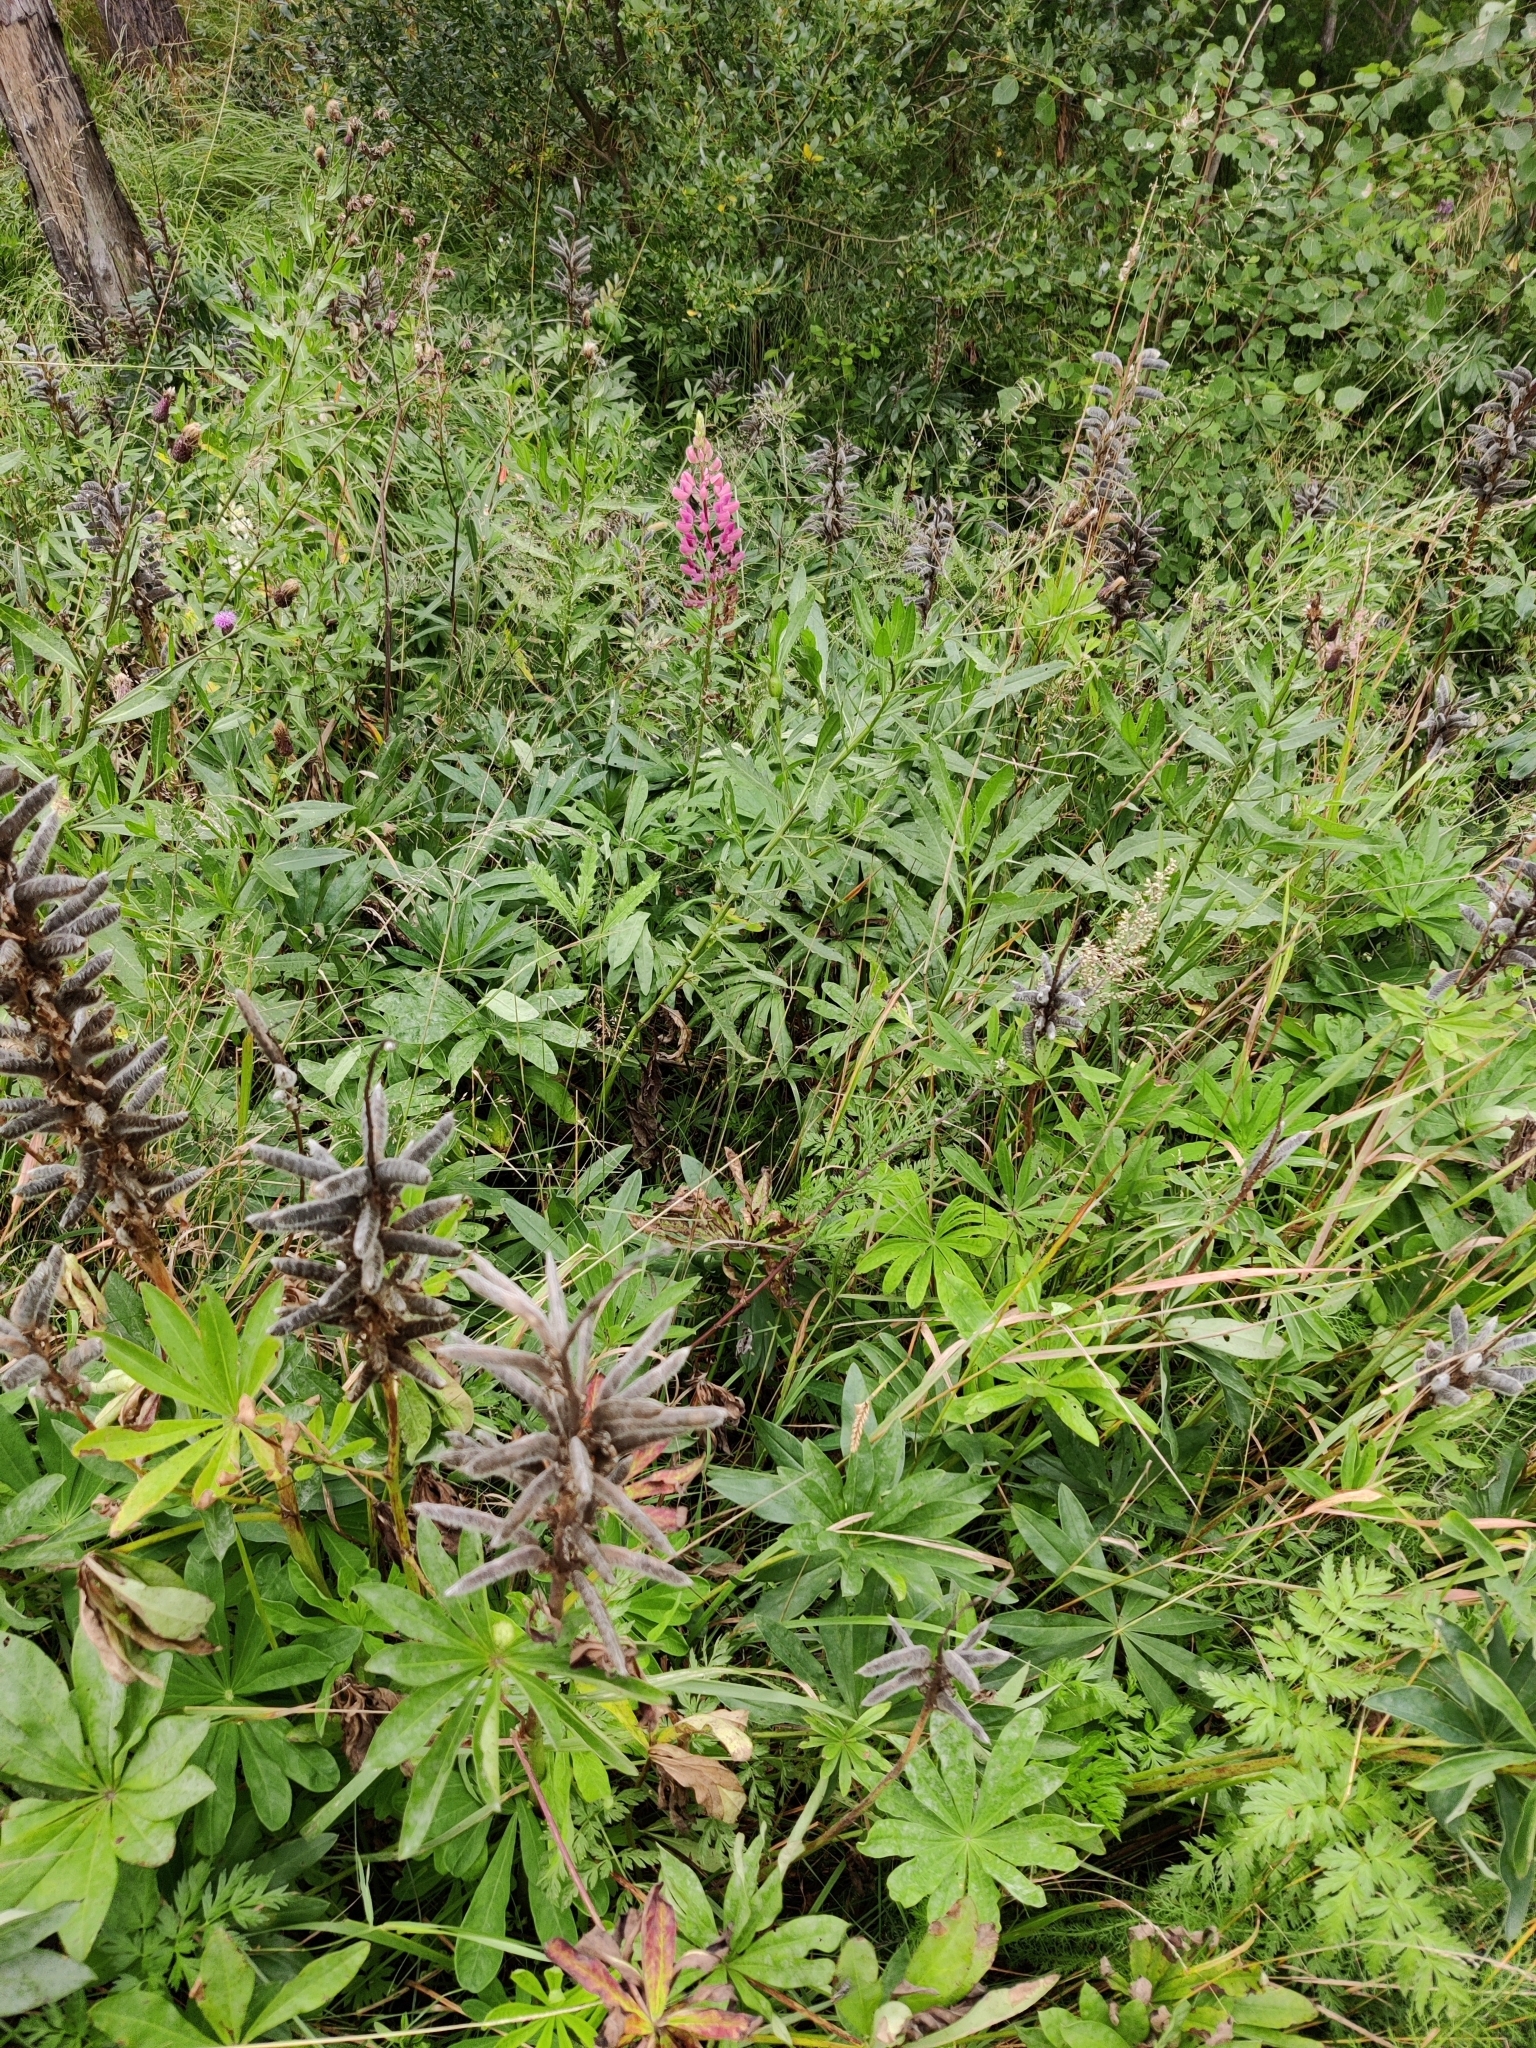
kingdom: Plantae
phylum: Tracheophyta
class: Magnoliopsida
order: Fabales
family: Fabaceae
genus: Lupinus
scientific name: Lupinus polyphyllus
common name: Garden lupin
